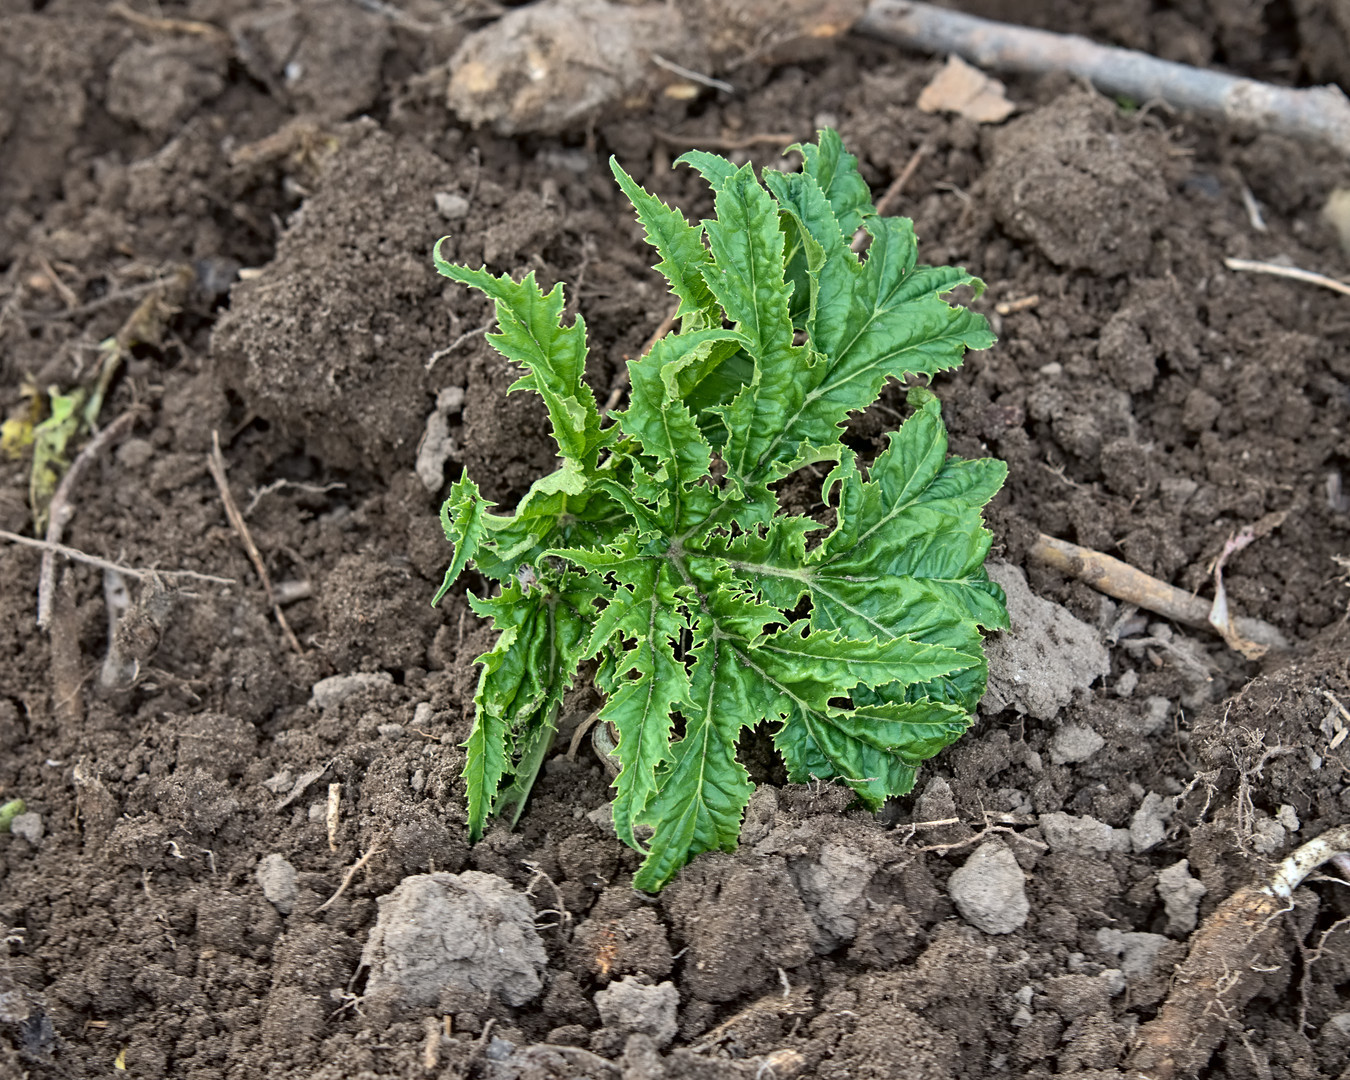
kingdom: Plantae
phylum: Tracheophyta
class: Magnoliopsida
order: Apiales
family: Apiaceae
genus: Heracleum
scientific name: Heracleum mantegazzianum
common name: Giant hogweed
